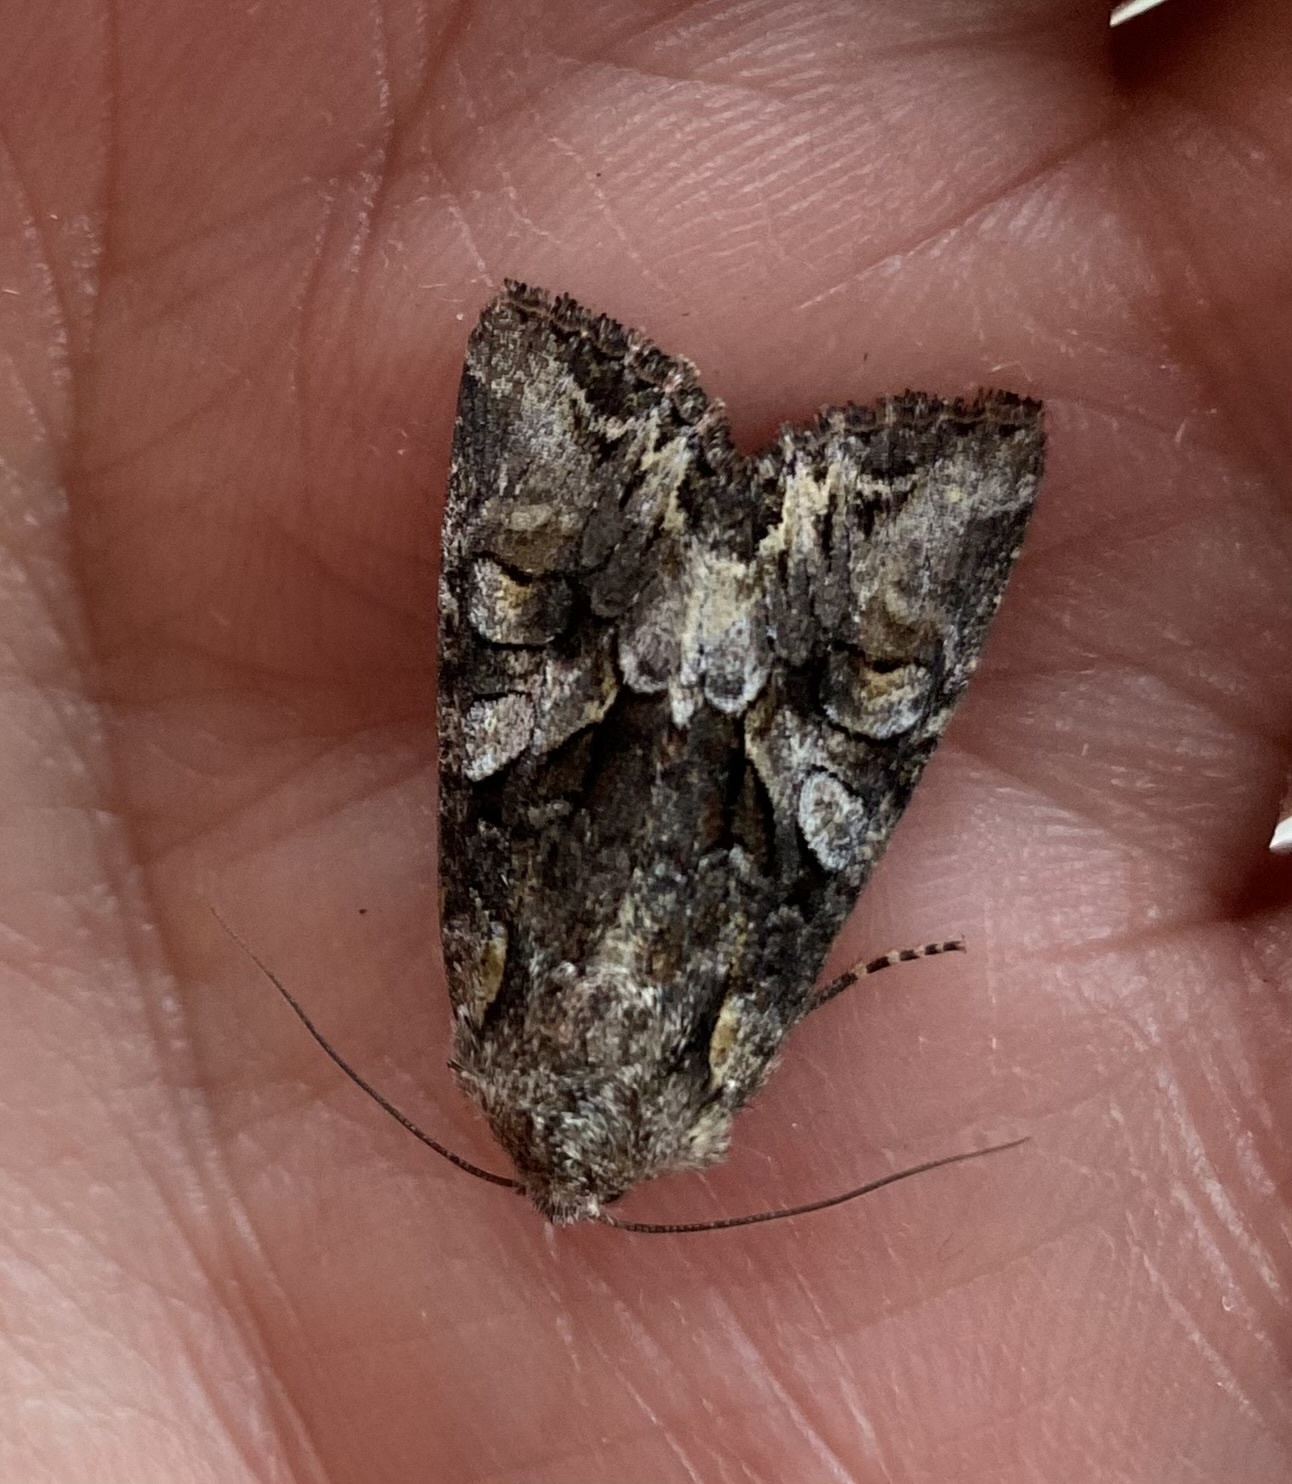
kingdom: Animalia
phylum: Arthropoda
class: Insecta
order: Lepidoptera
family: Noctuidae
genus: Lacanobia
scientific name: Lacanobia contigua
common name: Beautiful brocade
